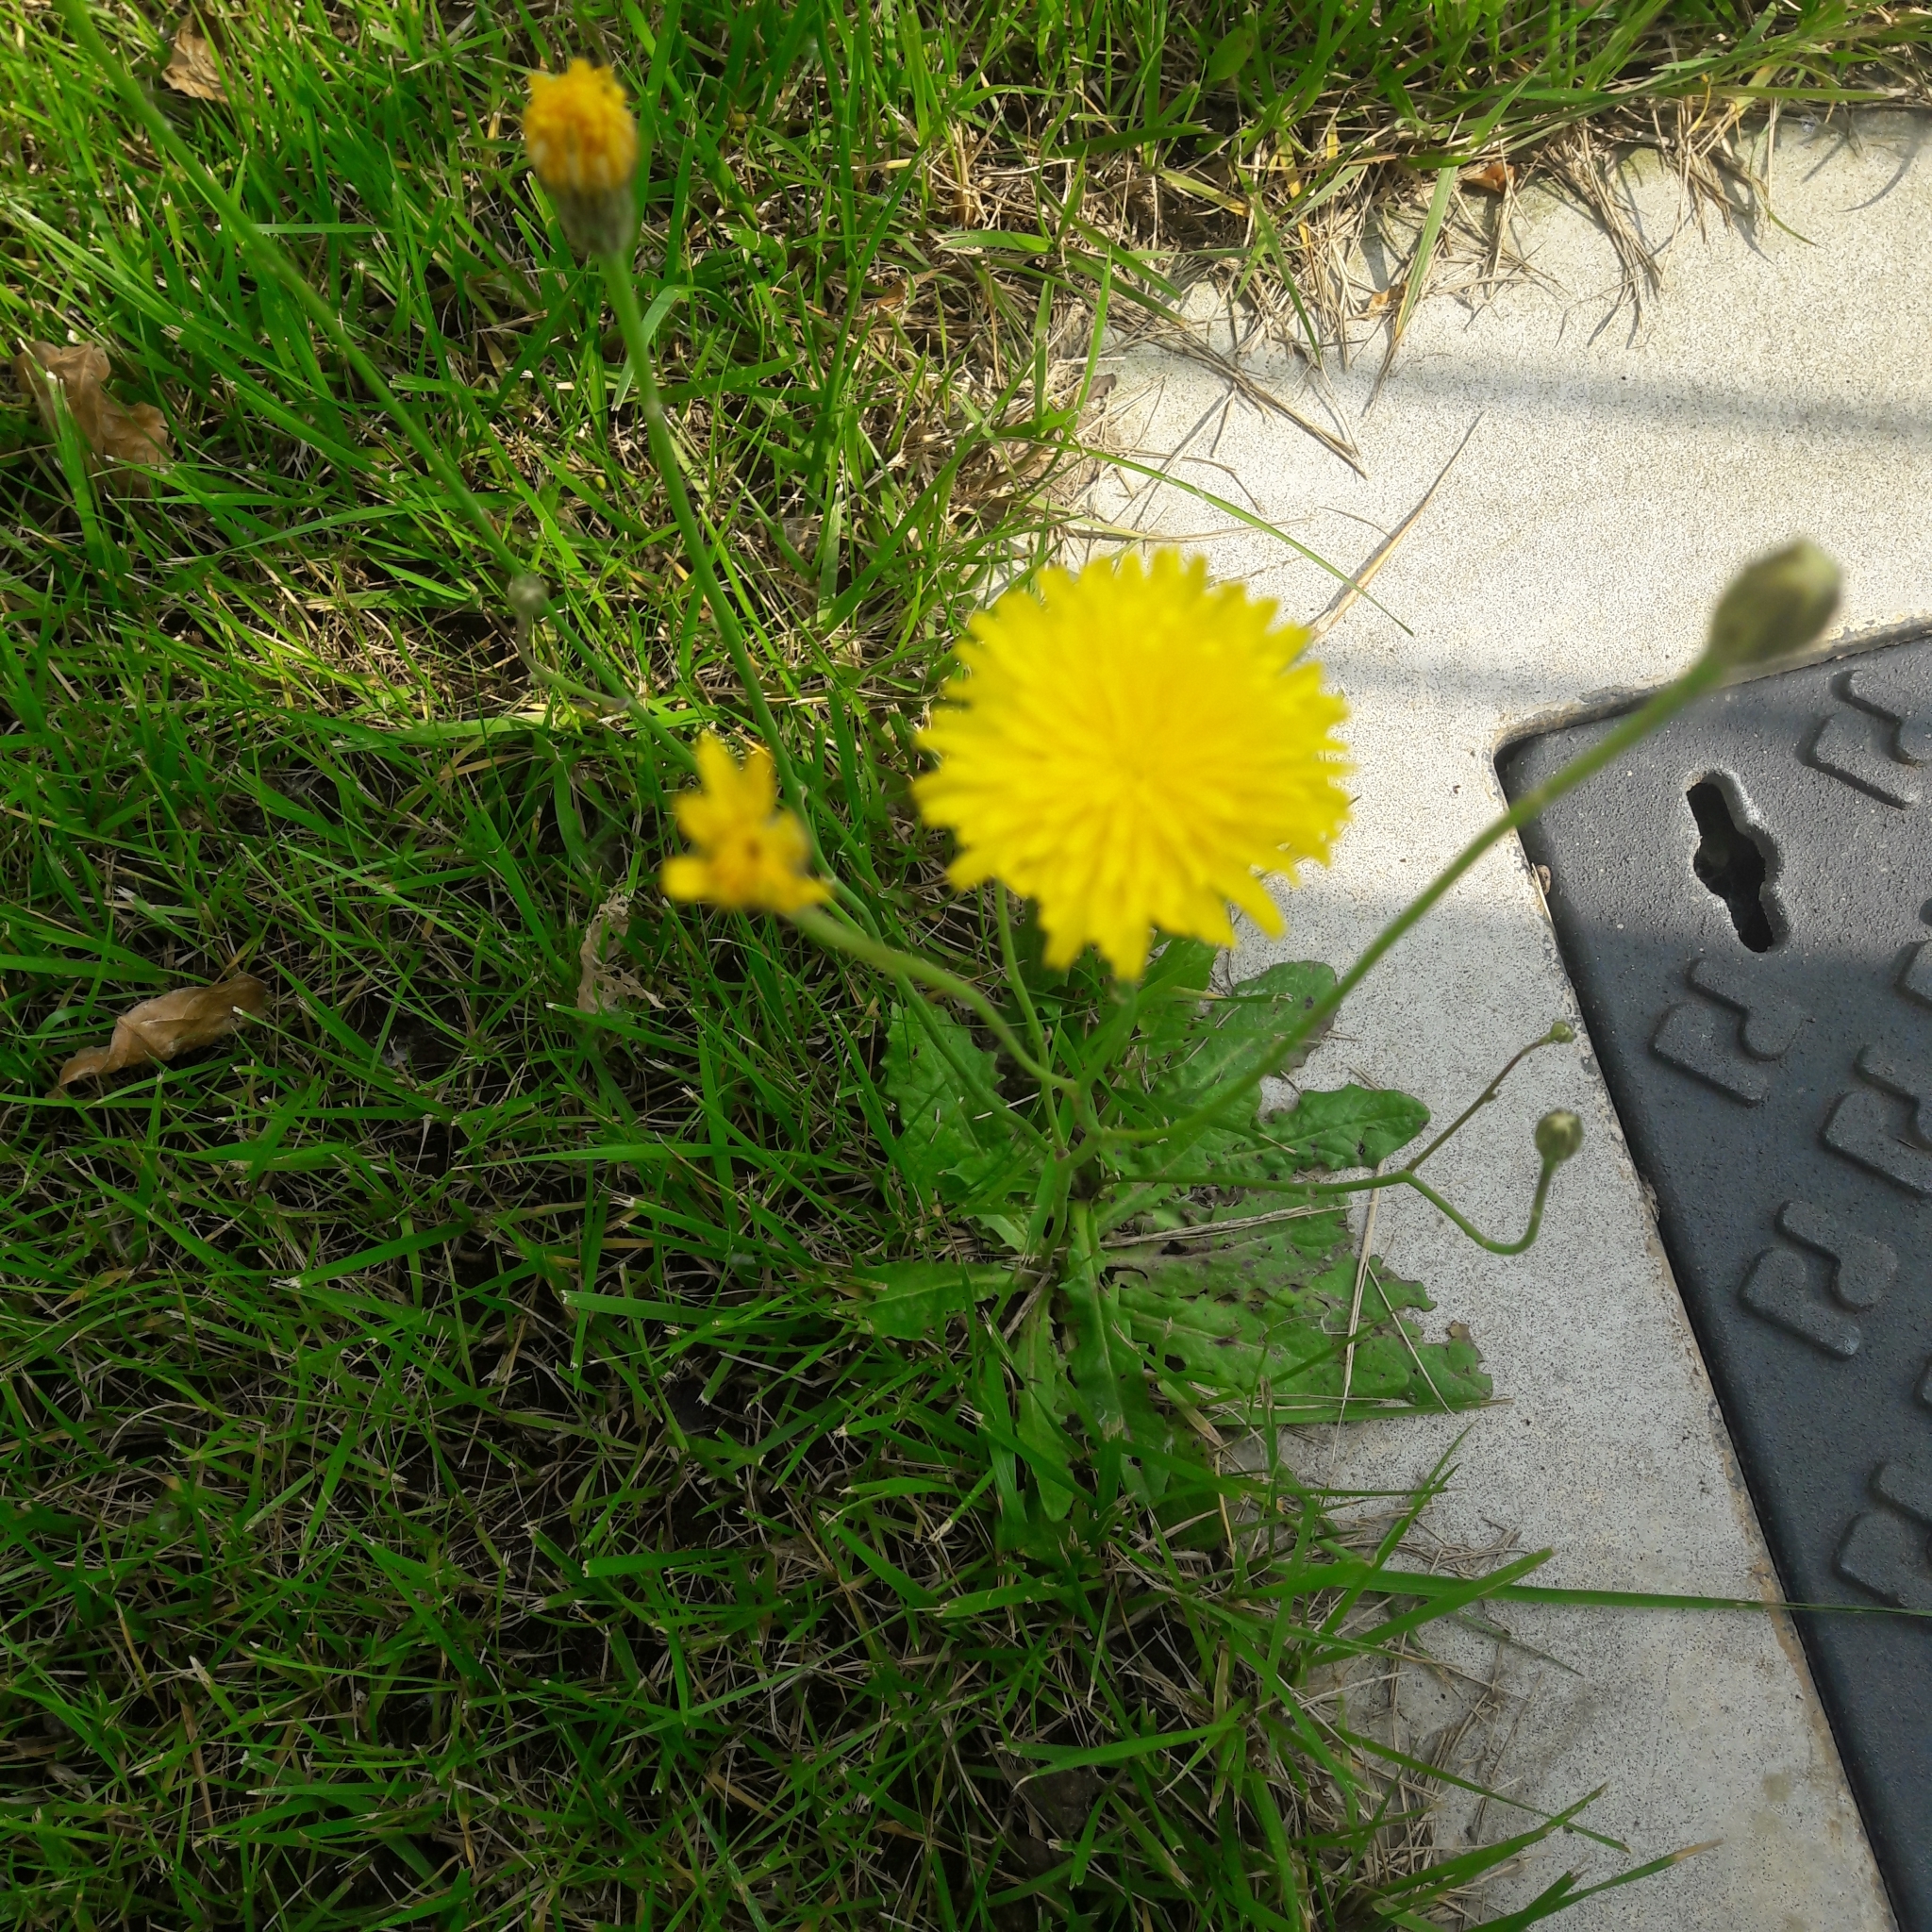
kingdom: Plantae
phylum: Tracheophyta
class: Magnoliopsida
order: Asterales
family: Asteraceae
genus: Hypochaeris
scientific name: Hypochaeris radicata
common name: Flatweed
